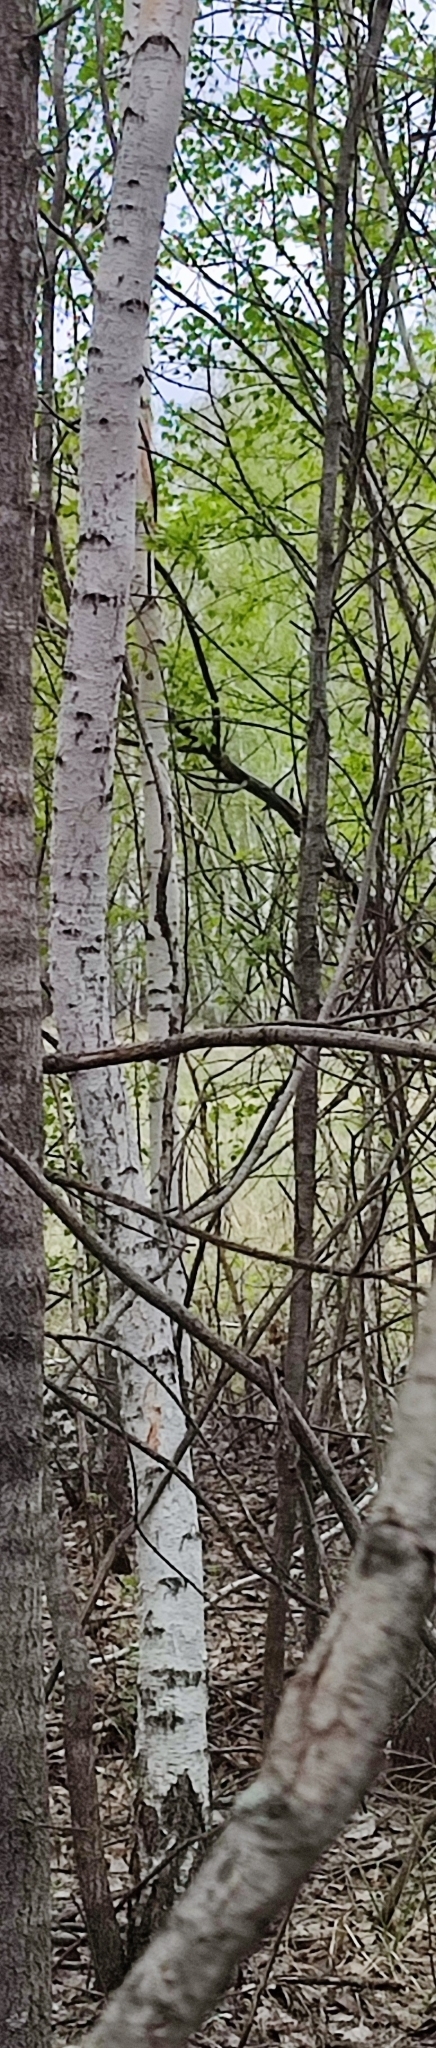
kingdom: Plantae
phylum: Tracheophyta
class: Magnoliopsida
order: Fagales
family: Betulaceae
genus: Betula
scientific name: Betula pendula
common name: Silver birch
